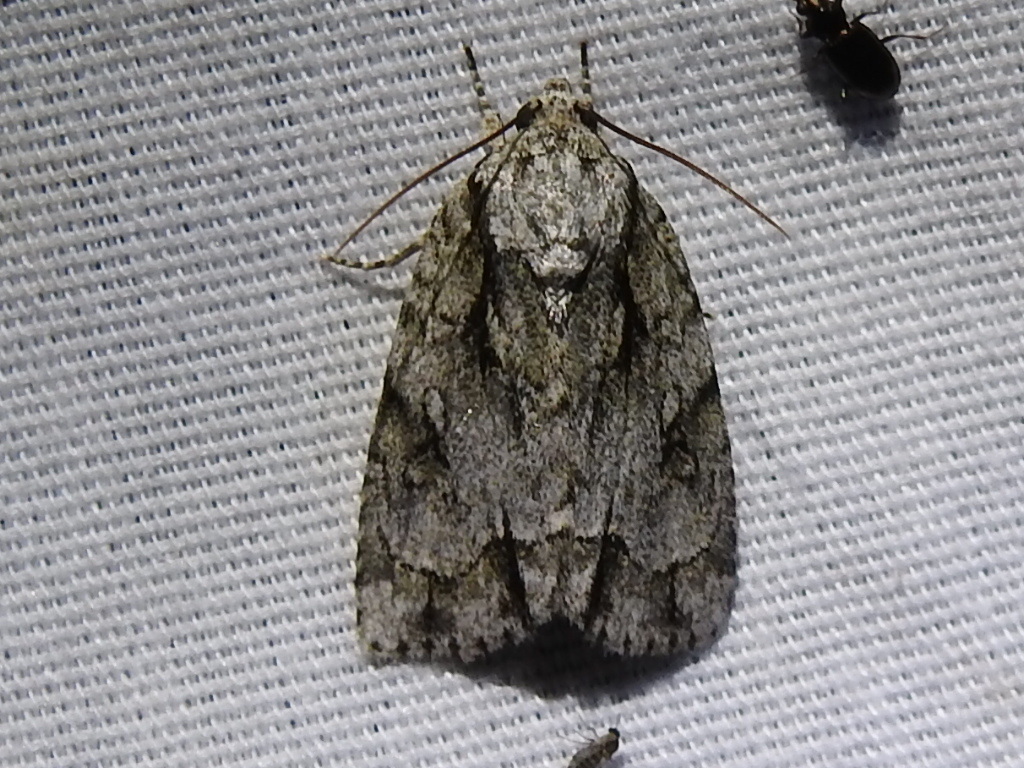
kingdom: Animalia
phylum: Arthropoda
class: Insecta
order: Lepidoptera
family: Noctuidae
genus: Acronicta
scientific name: Acronicta vinnula
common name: Delightful dagger
